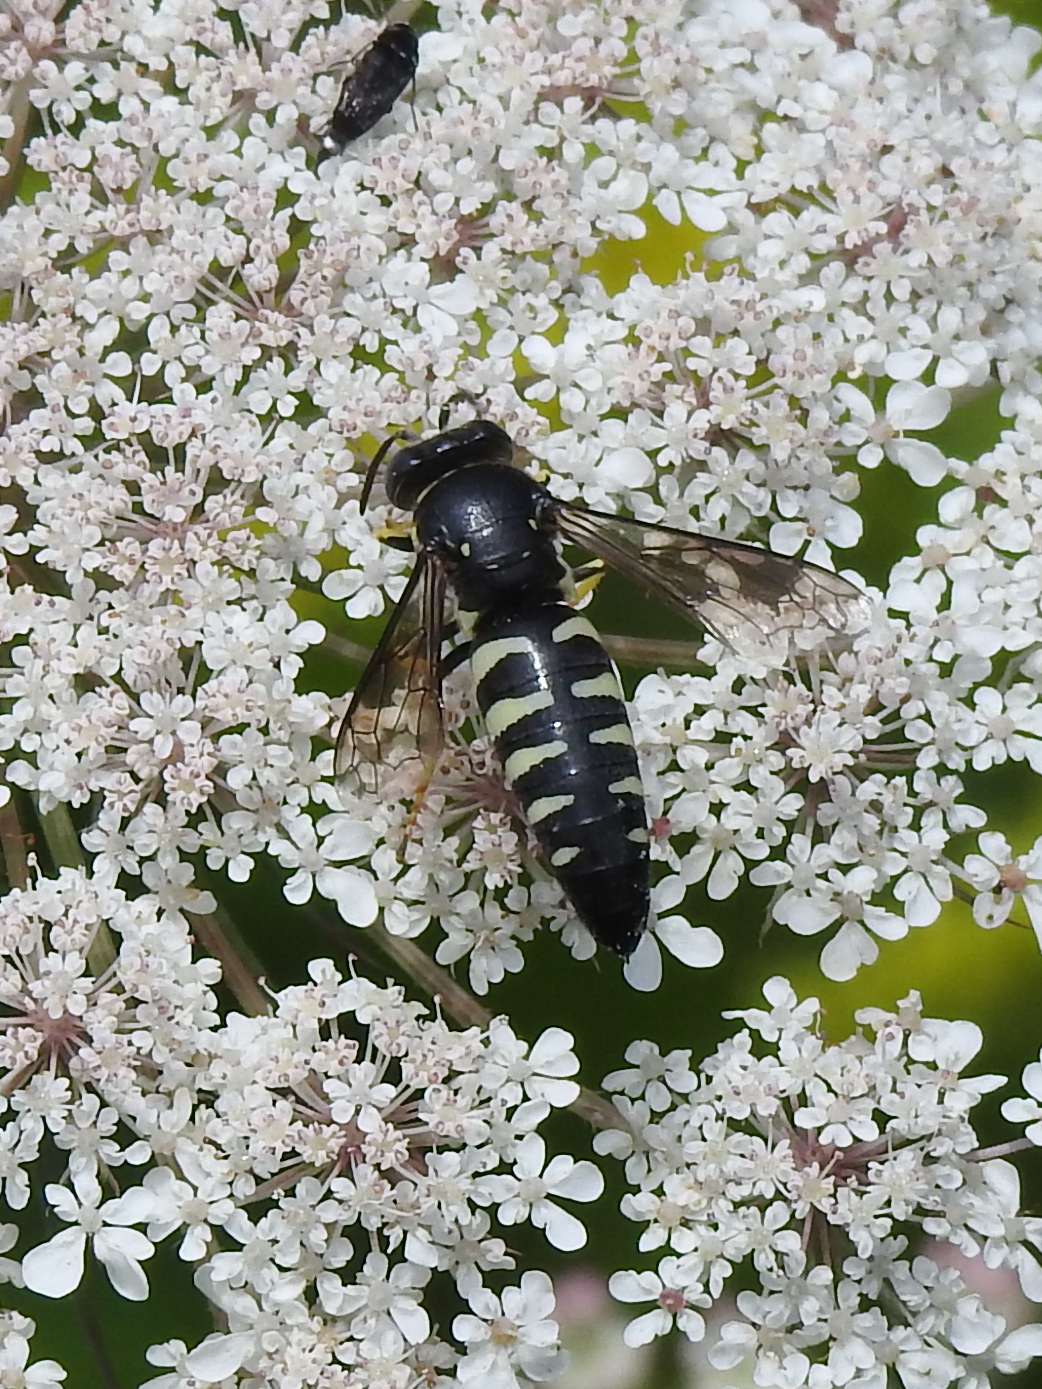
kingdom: Animalia
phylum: Arthropoda
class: Insecta
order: Hymenoptera
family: Crabronidae
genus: Bicyrtes
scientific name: Bicyrtes quadrifasciatus
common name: Four-banded stink bug hunter wasp
